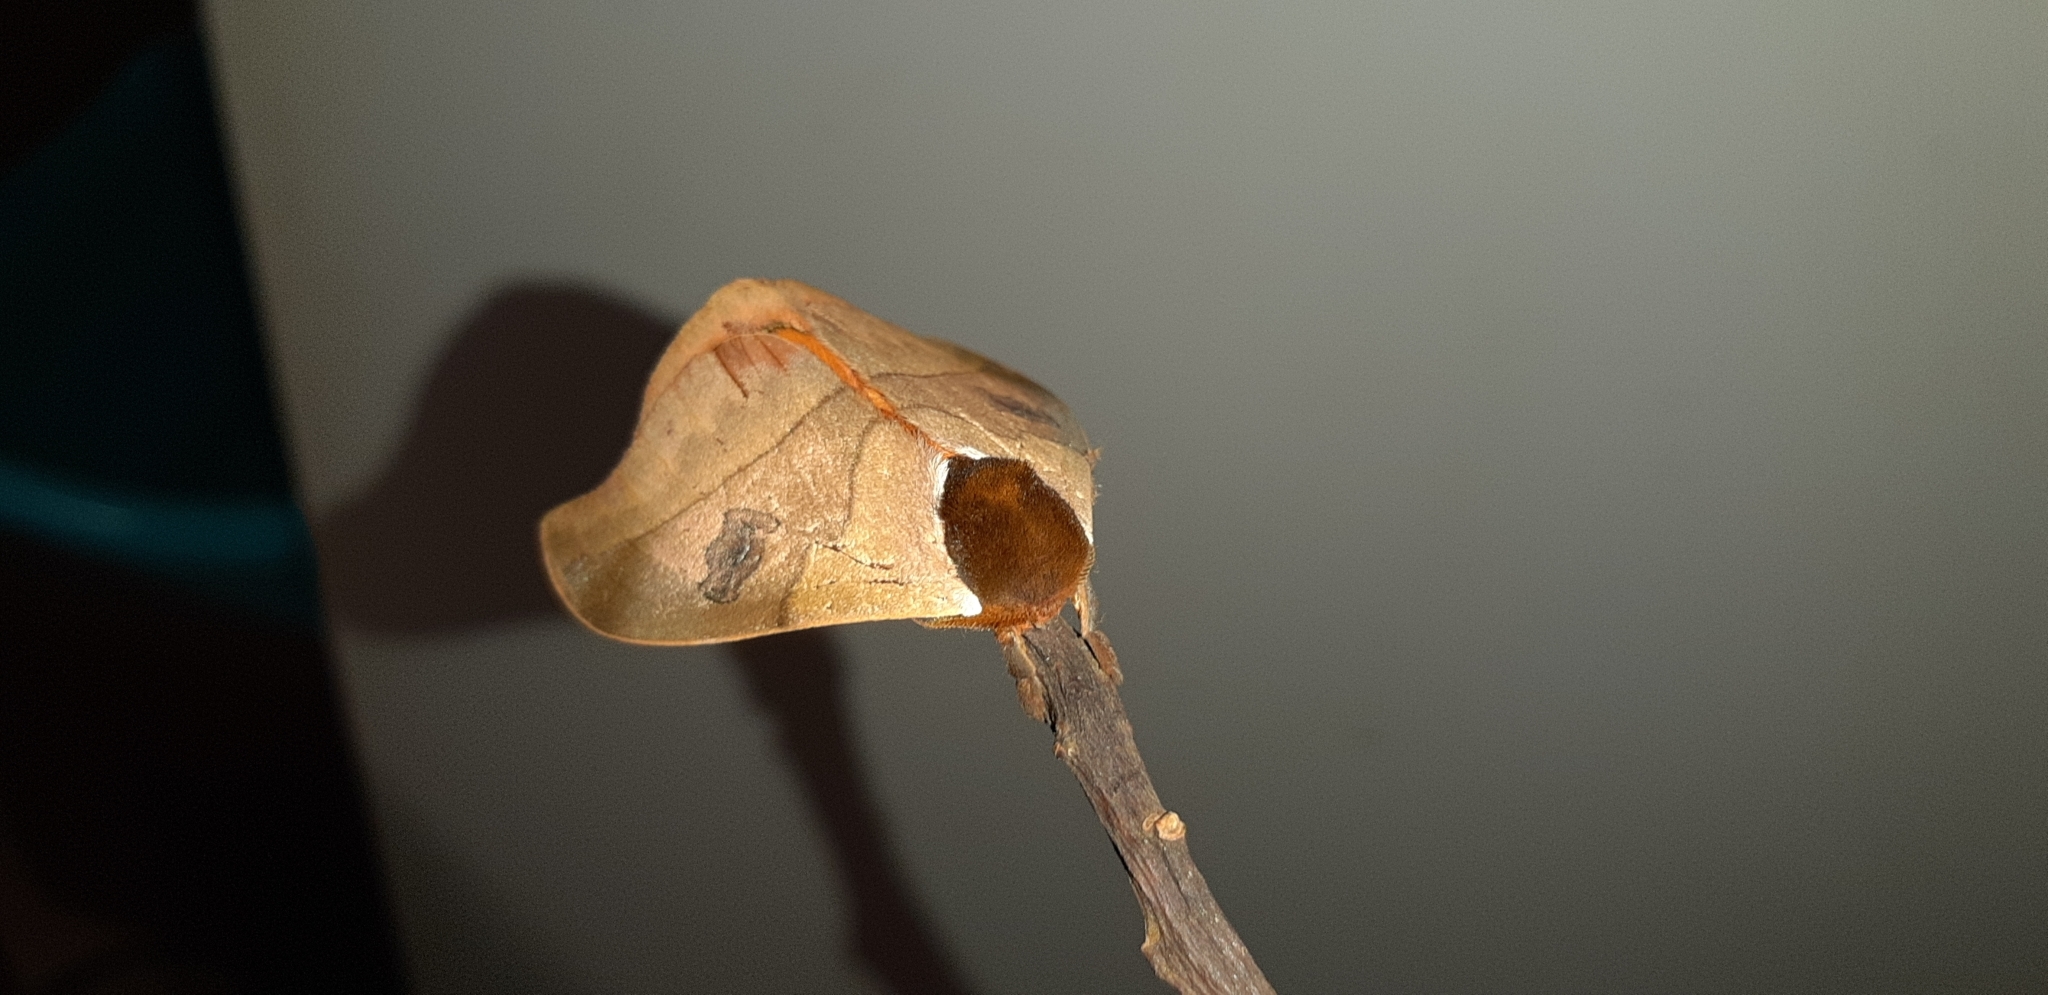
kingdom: Animalia
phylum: Arthropoda
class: Insecta
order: Lepidoptera
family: Saturniidae
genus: Automeris
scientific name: Automeris angulatus
